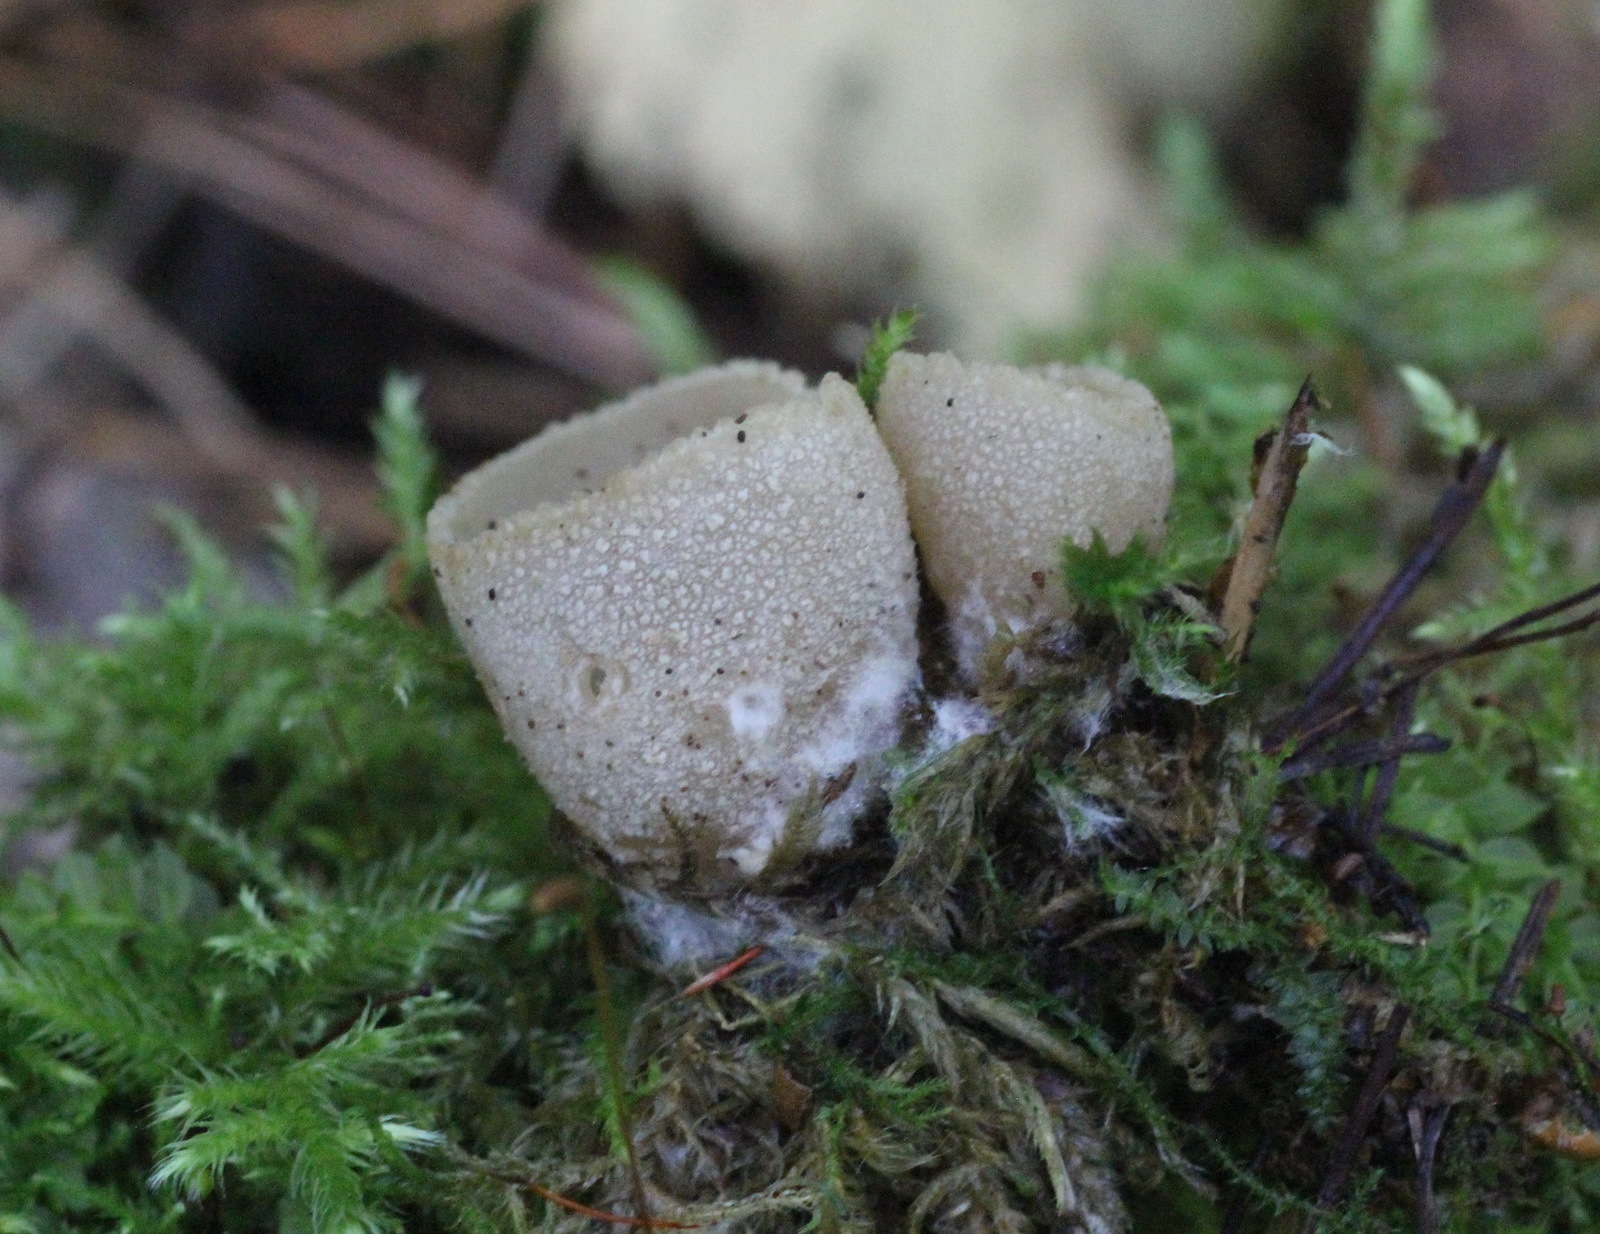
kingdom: Fungi
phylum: Ascomycota
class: Pezizomycetes
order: Pezizales
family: Tarzettaceae
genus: Tarzetta
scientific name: Tarzetta cupularis
